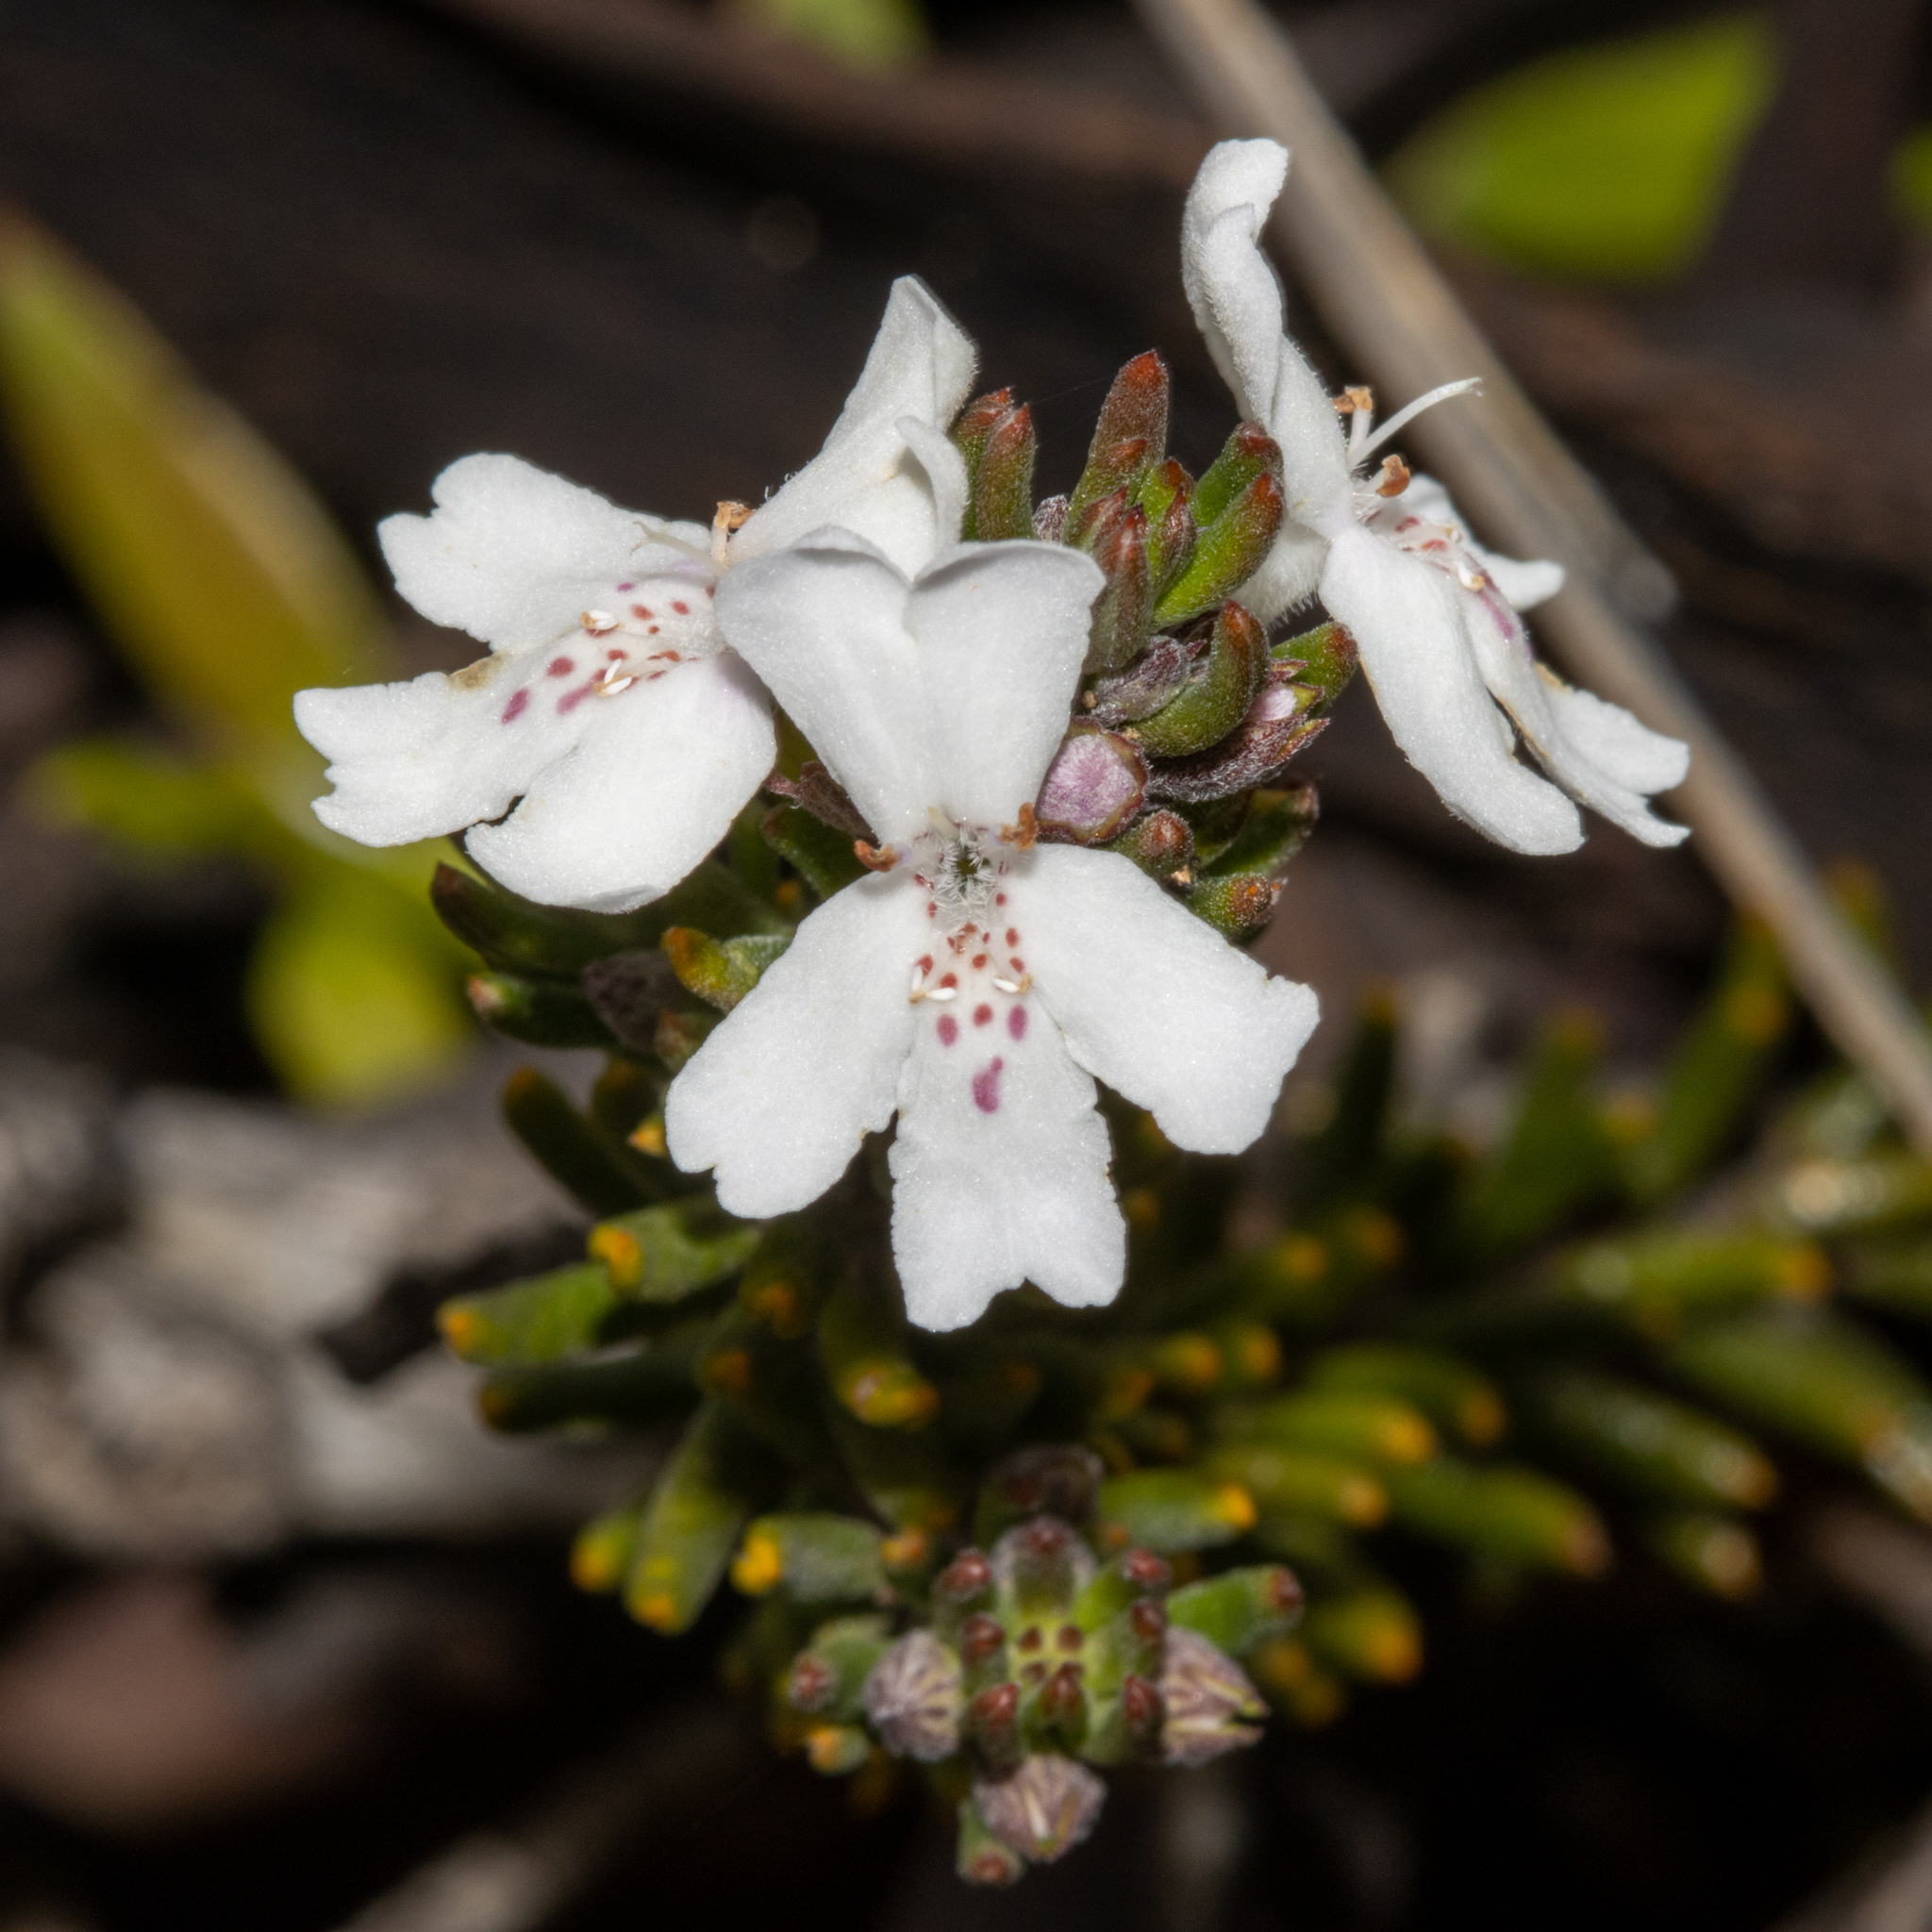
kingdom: Plantae
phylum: Tracheophyta
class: Magnoliopsida
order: Lamiales
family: Lamiaceae
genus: Westringia
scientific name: Westringia rigida
